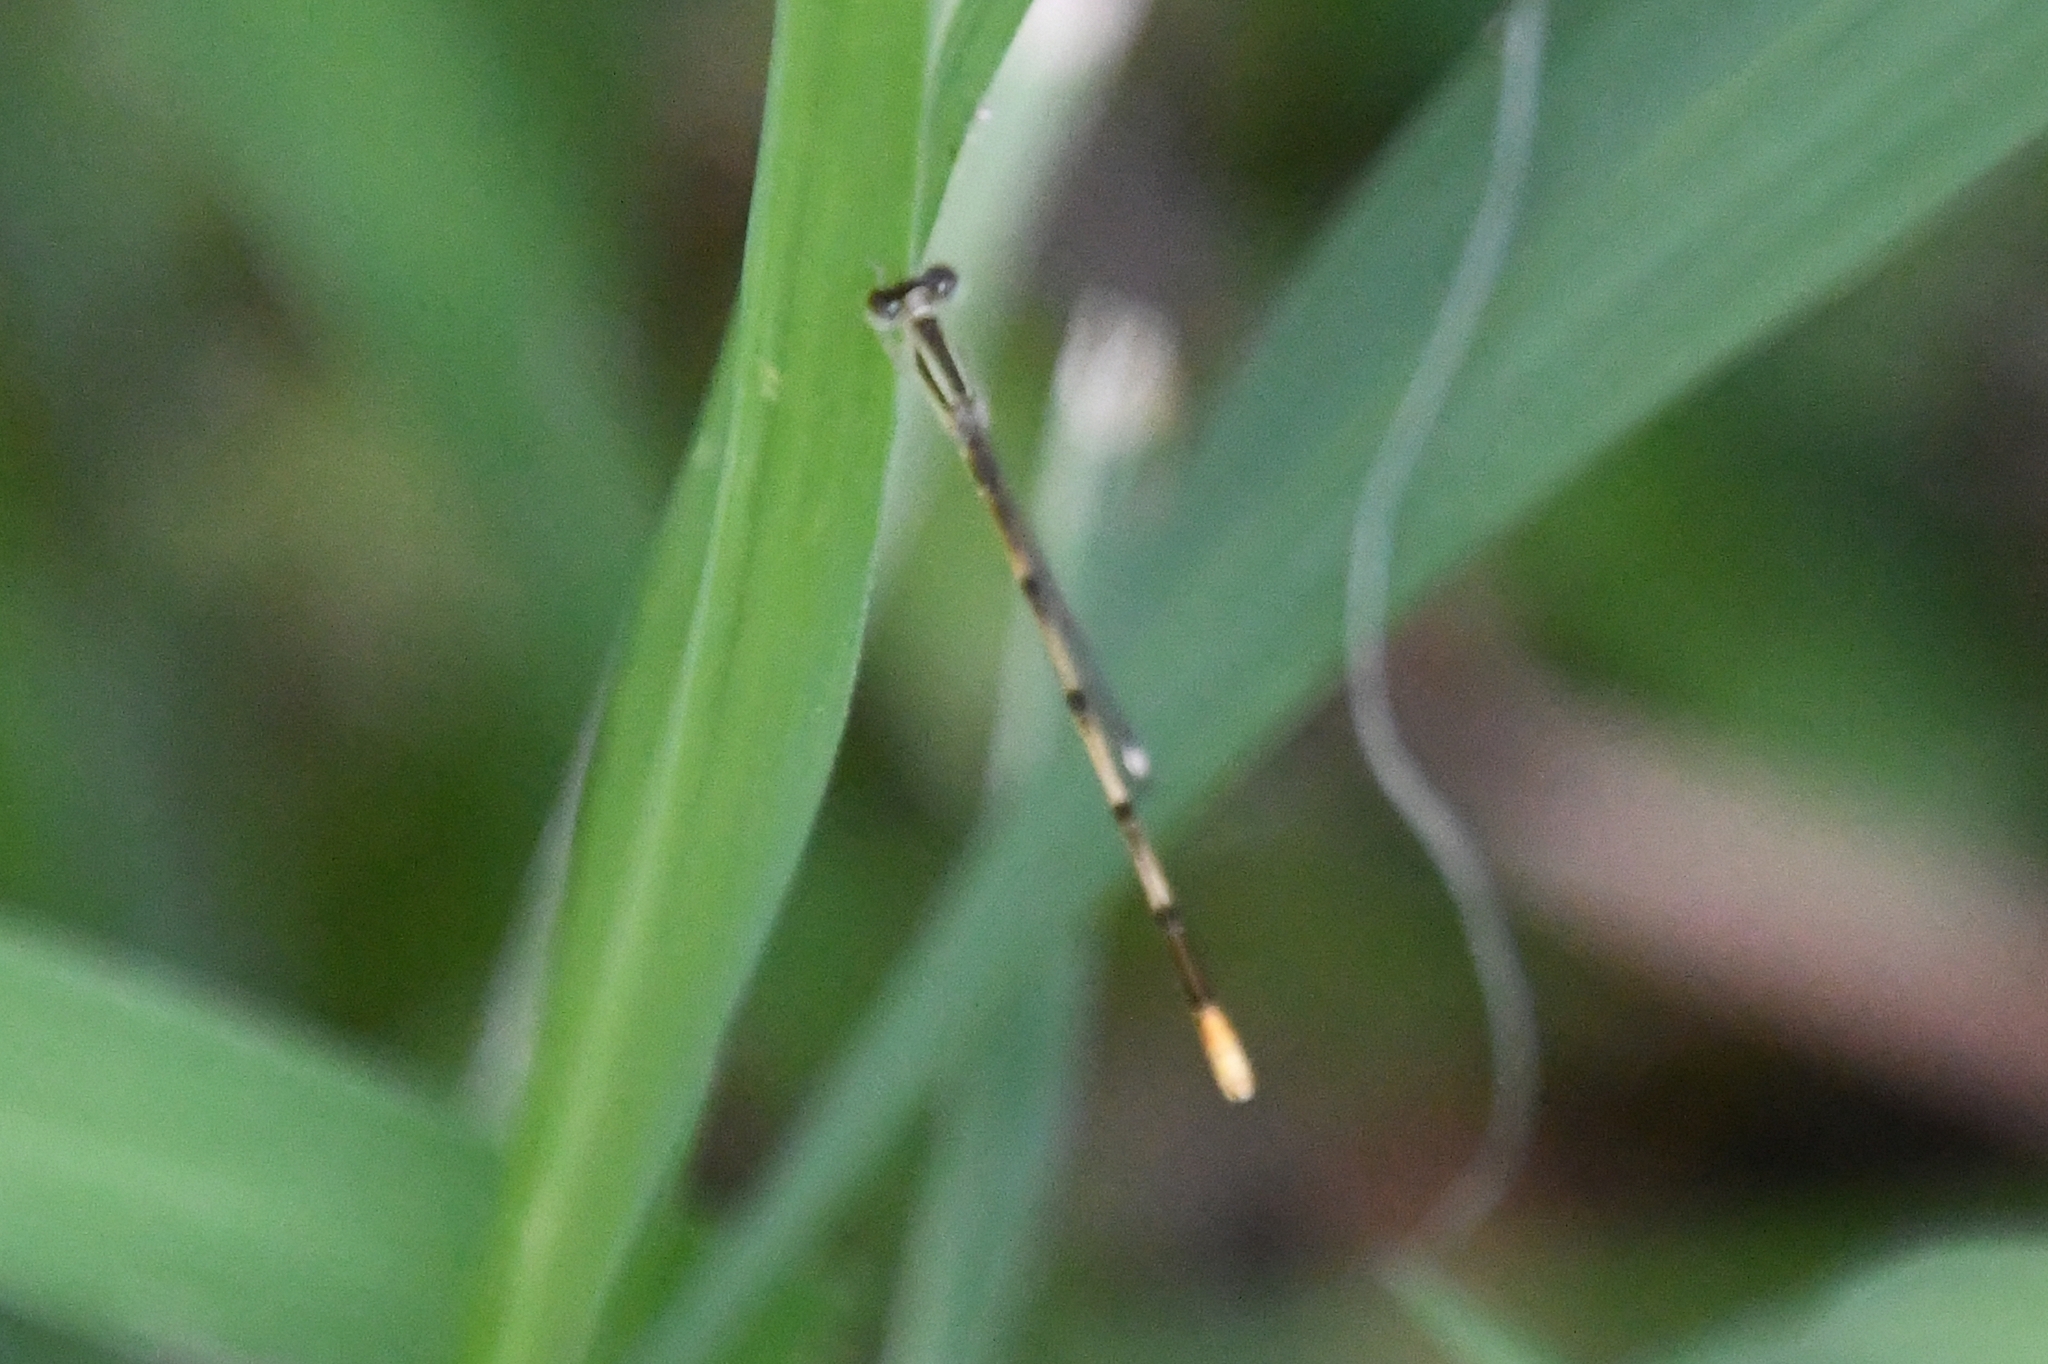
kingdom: Animalia
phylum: Arthropoda
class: Insecta
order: Odonata
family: Coenagrionidae
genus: Ischnura
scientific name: Ischnura hastata
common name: Citrine forktail
